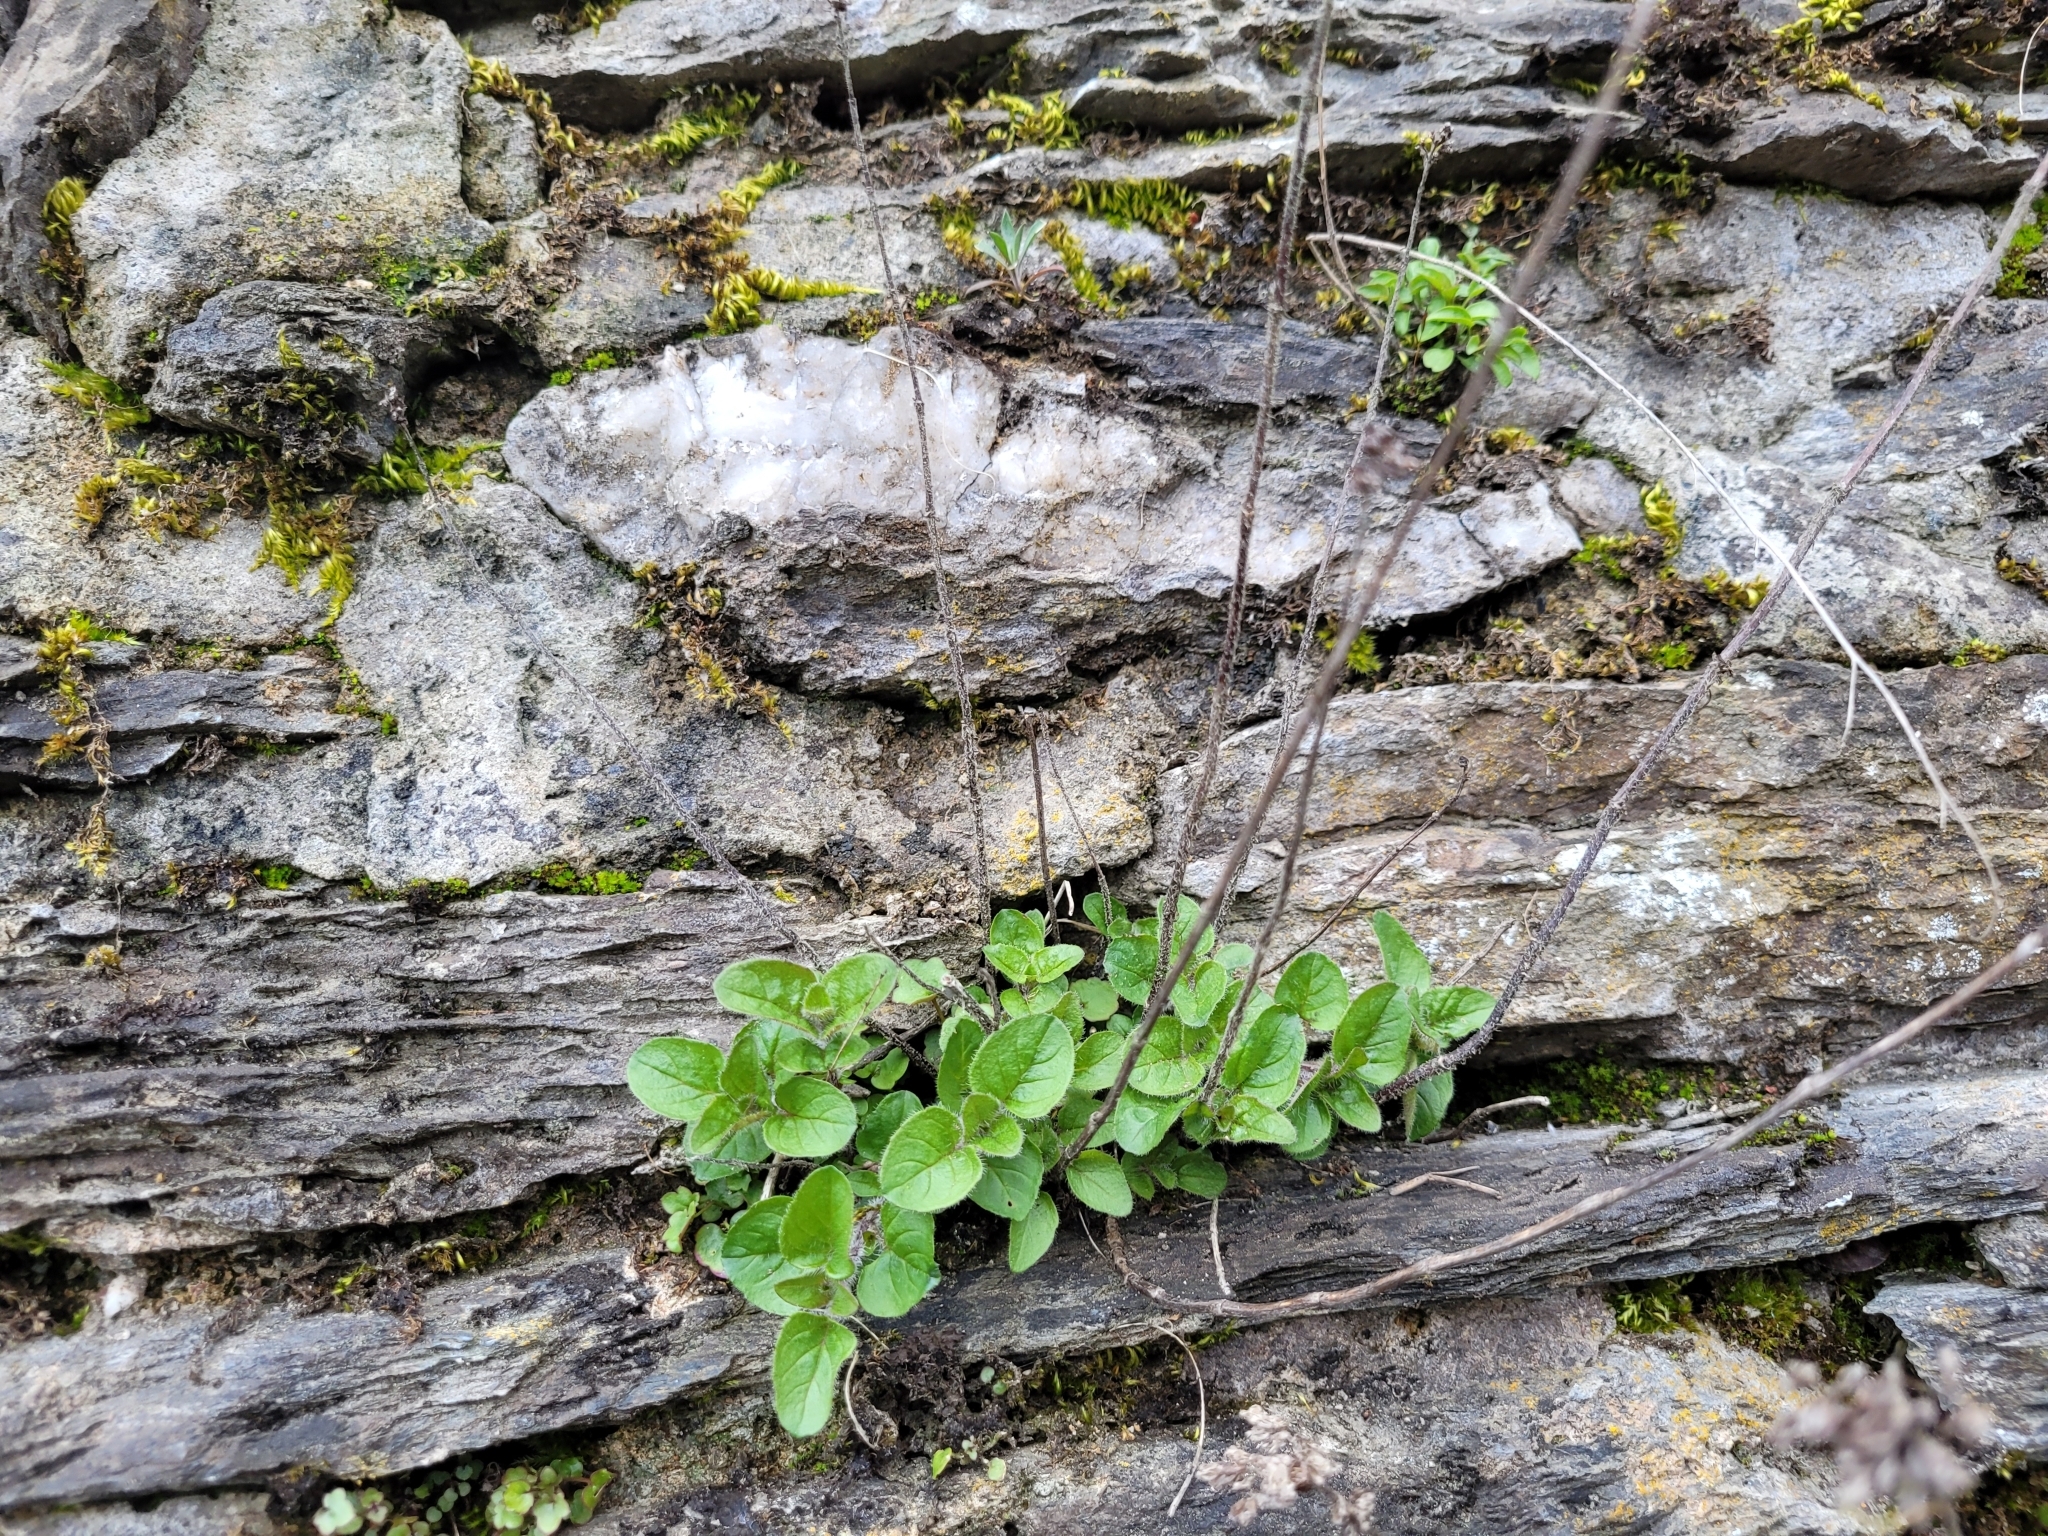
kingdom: Plantae
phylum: Tracheophyta
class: Magnoliopsida
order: Lamiales
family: Lamiaceae
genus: Origanum
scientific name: Origanum vulgare
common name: Wild marjoram
